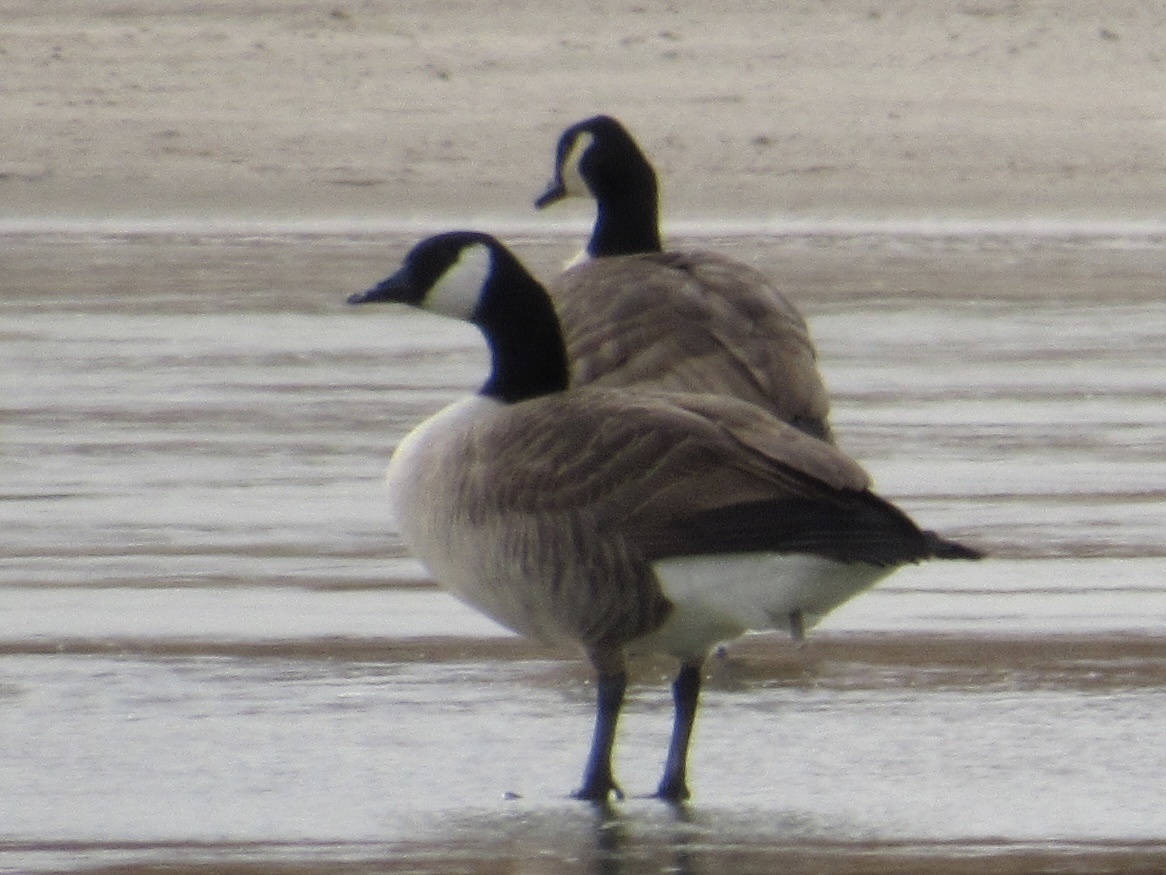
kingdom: Animalia
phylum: Chordata
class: Aves
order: Anseriformes
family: Anatidae
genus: Branta
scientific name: Branta canadensis
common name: Canada goose
